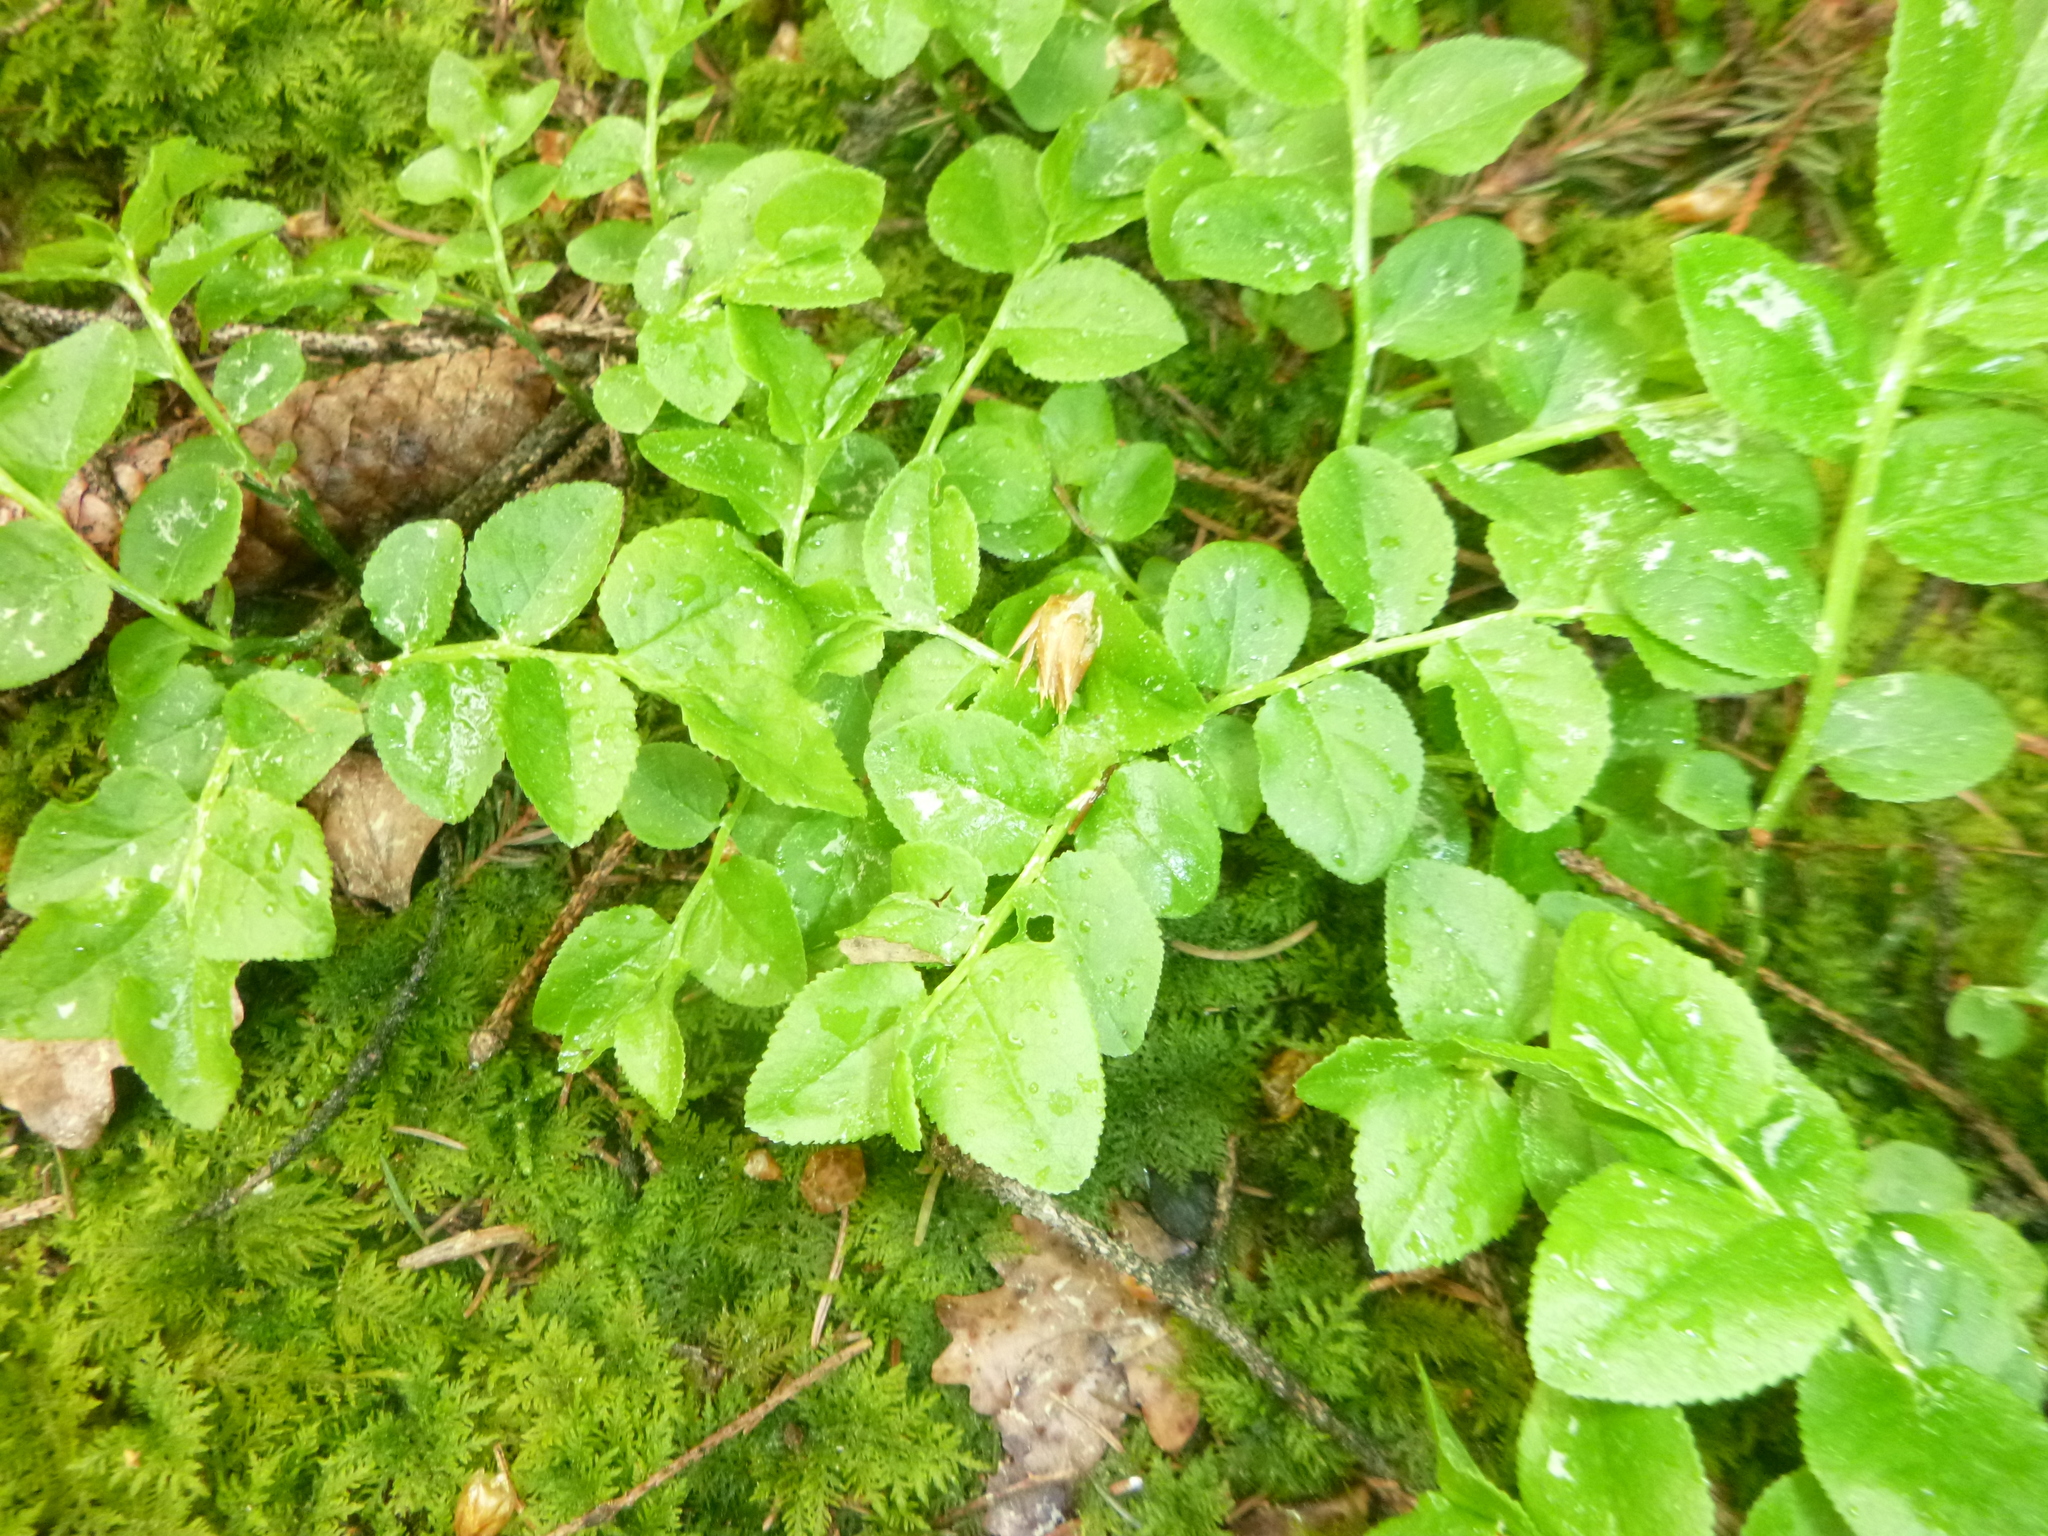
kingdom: Plantae
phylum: Tracheophyta
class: Magnoliopsida
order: Ericales
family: Ericaceae
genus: Vaccinium
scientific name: Vaccinium myrtillus
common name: Bilberry
